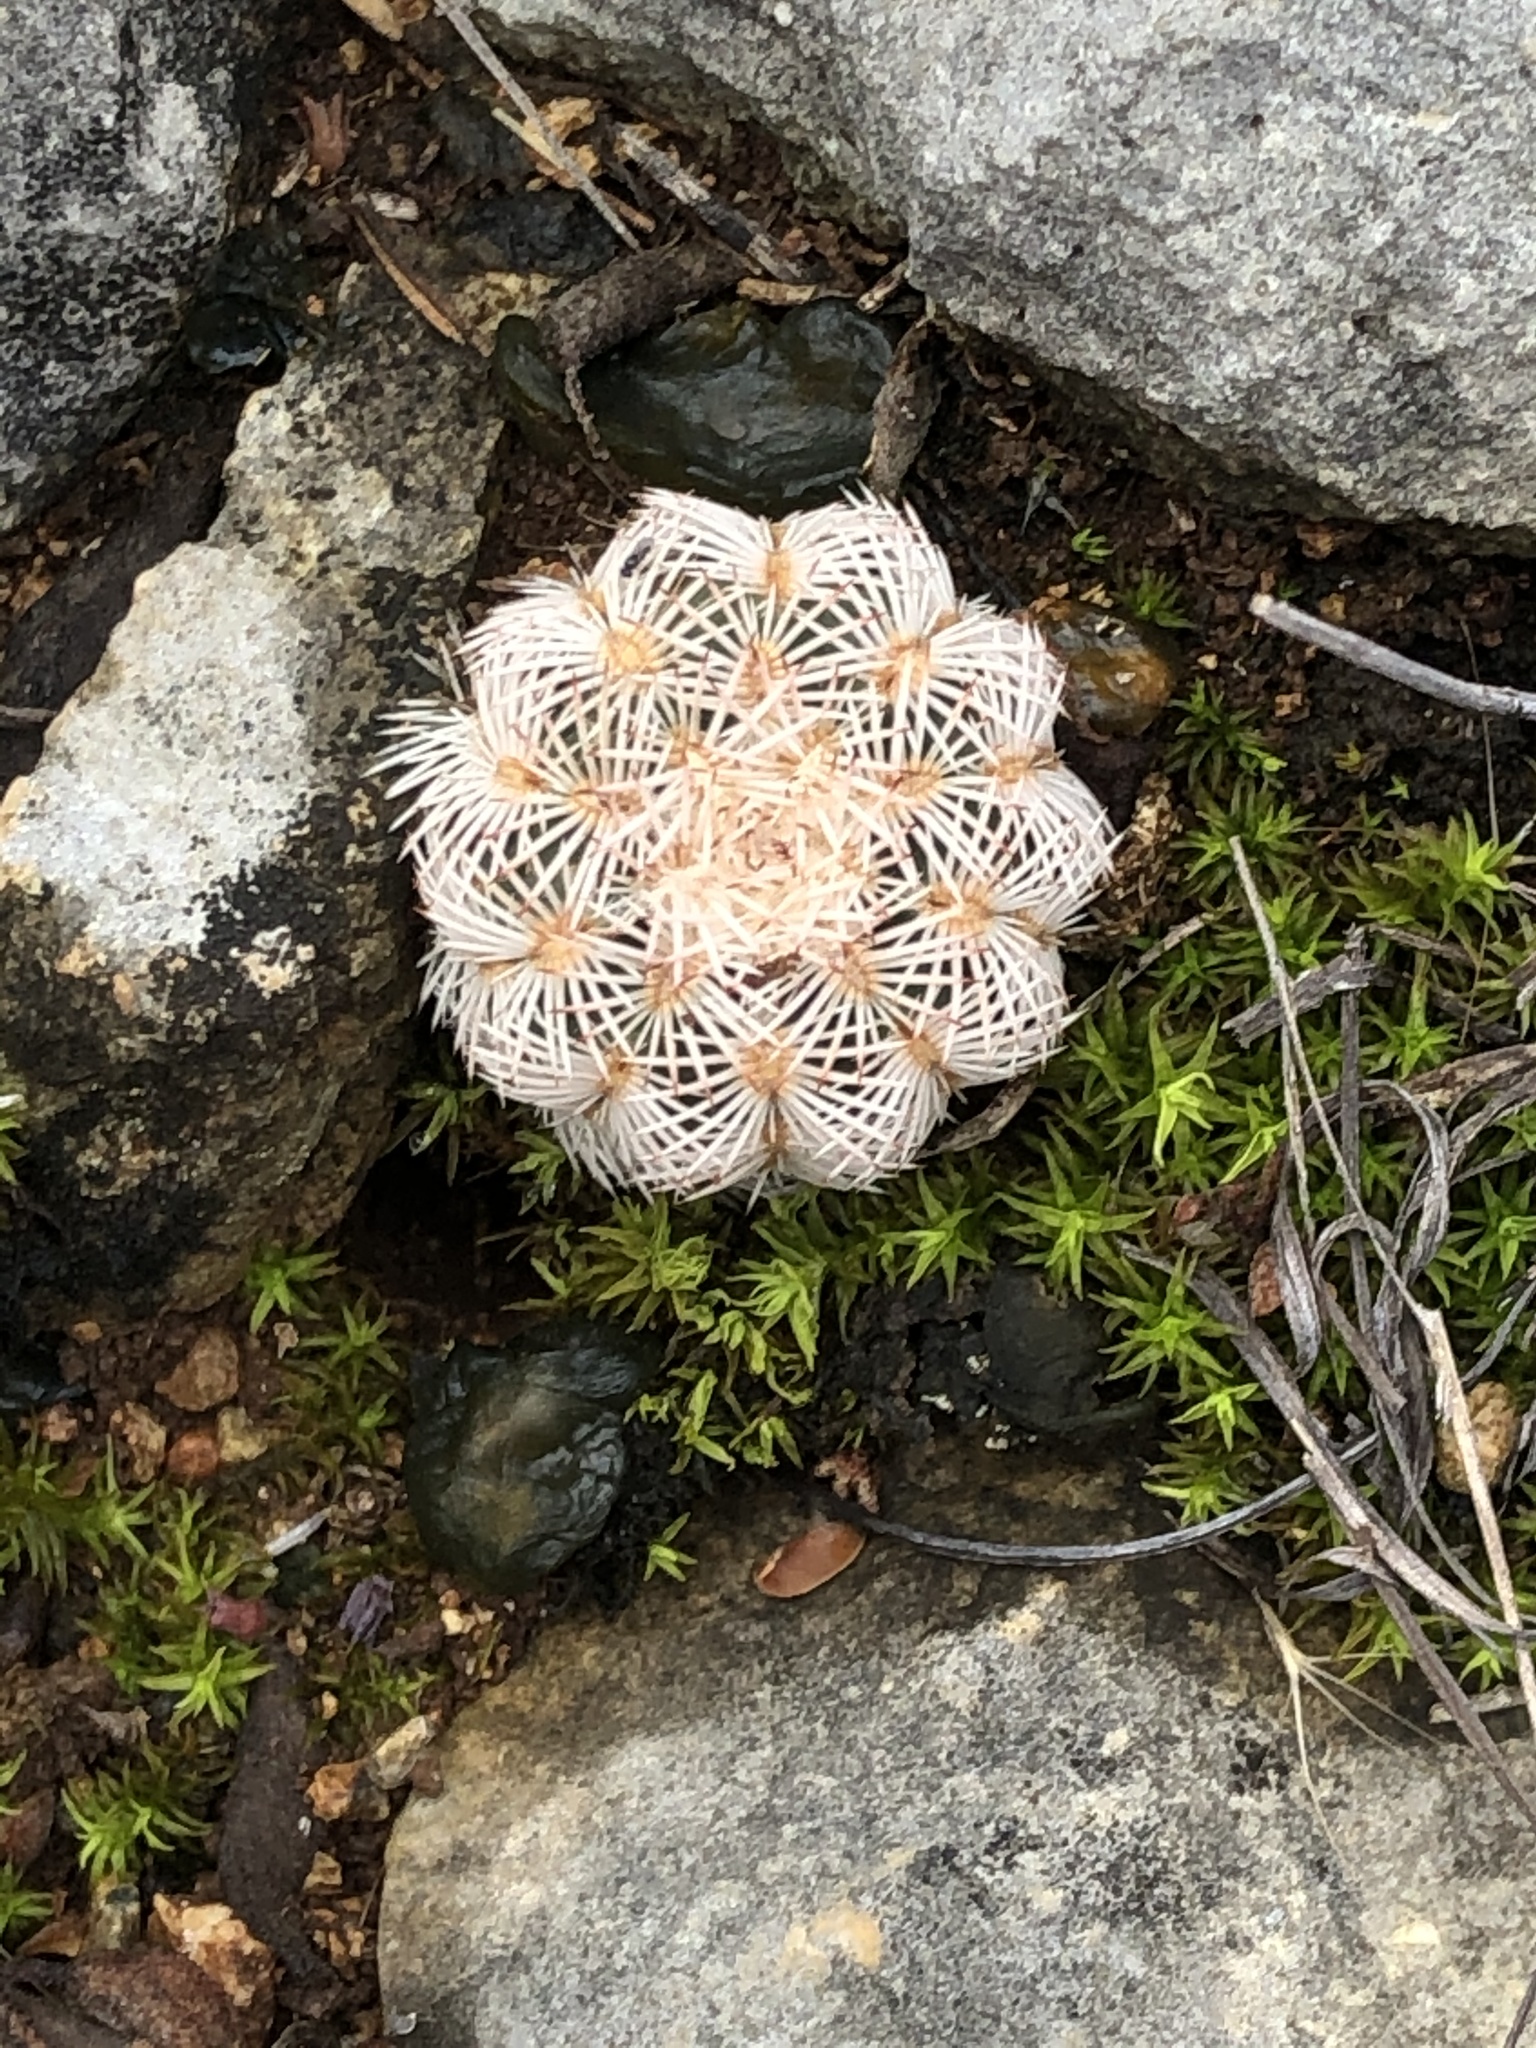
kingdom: Plantae
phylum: Tracheophyta
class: Magnoliopsida
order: Caryophyllales
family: Cactaceae
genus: Echinocereus
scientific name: Echinocereus reichenbachii
